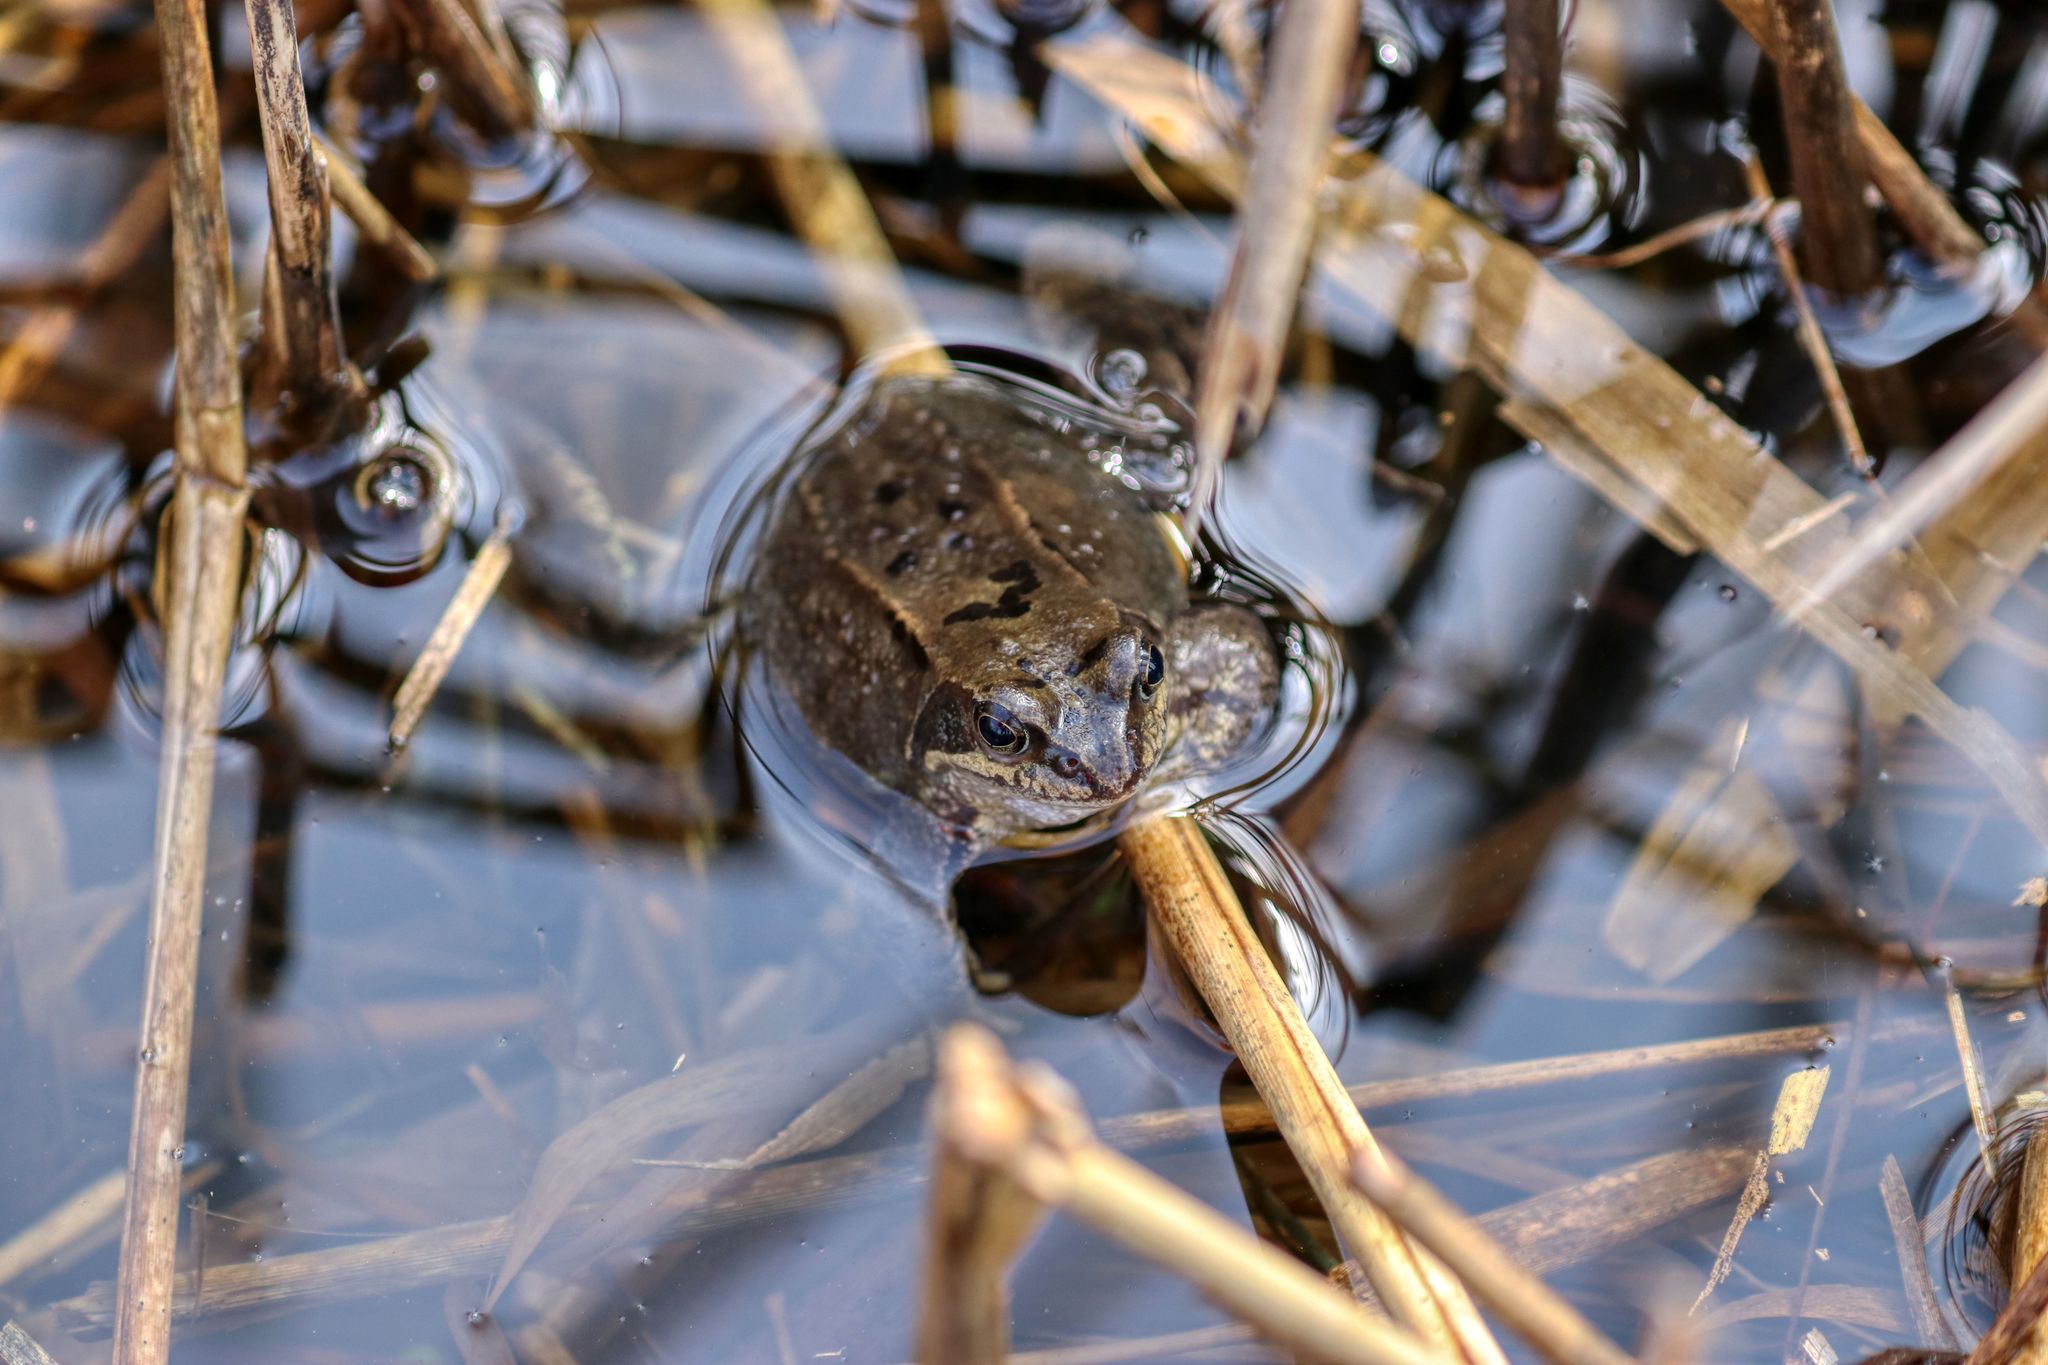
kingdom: Animalia
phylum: Chordata
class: Amphibia
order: Anura
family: Ranidae
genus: Rana
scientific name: Rana temporaria
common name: Common frog
